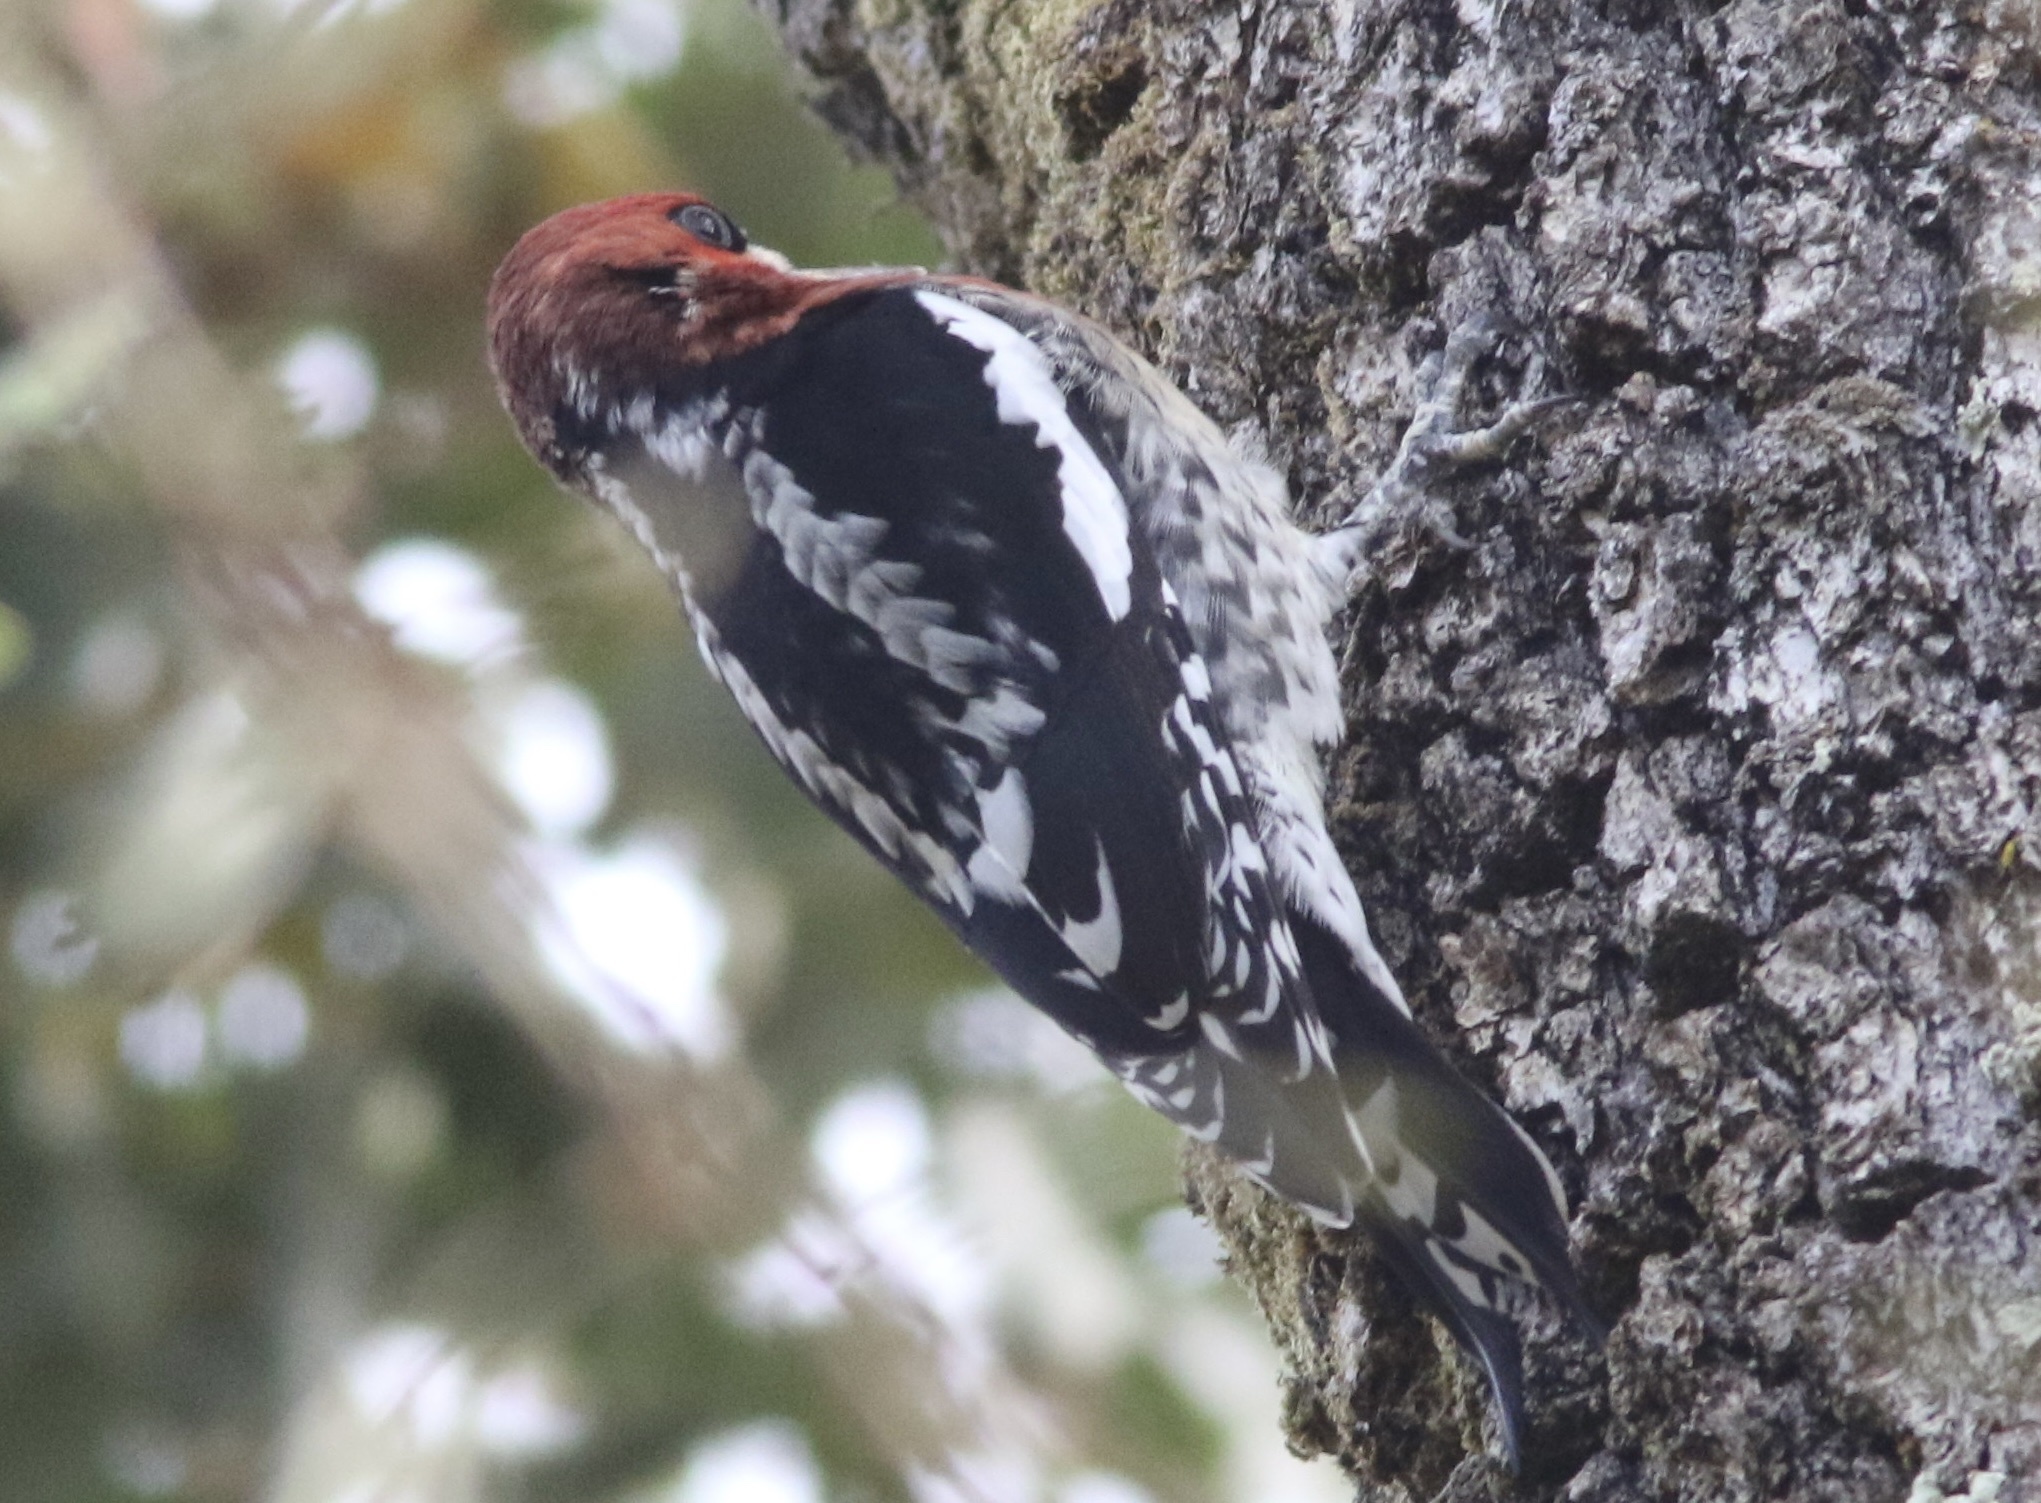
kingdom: Animalia
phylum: Chordata
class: Aves
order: Piciformes
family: Picidae
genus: Sphyrapicus
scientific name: Sphyrapicus ruber
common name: Red-breasted sapsucker
